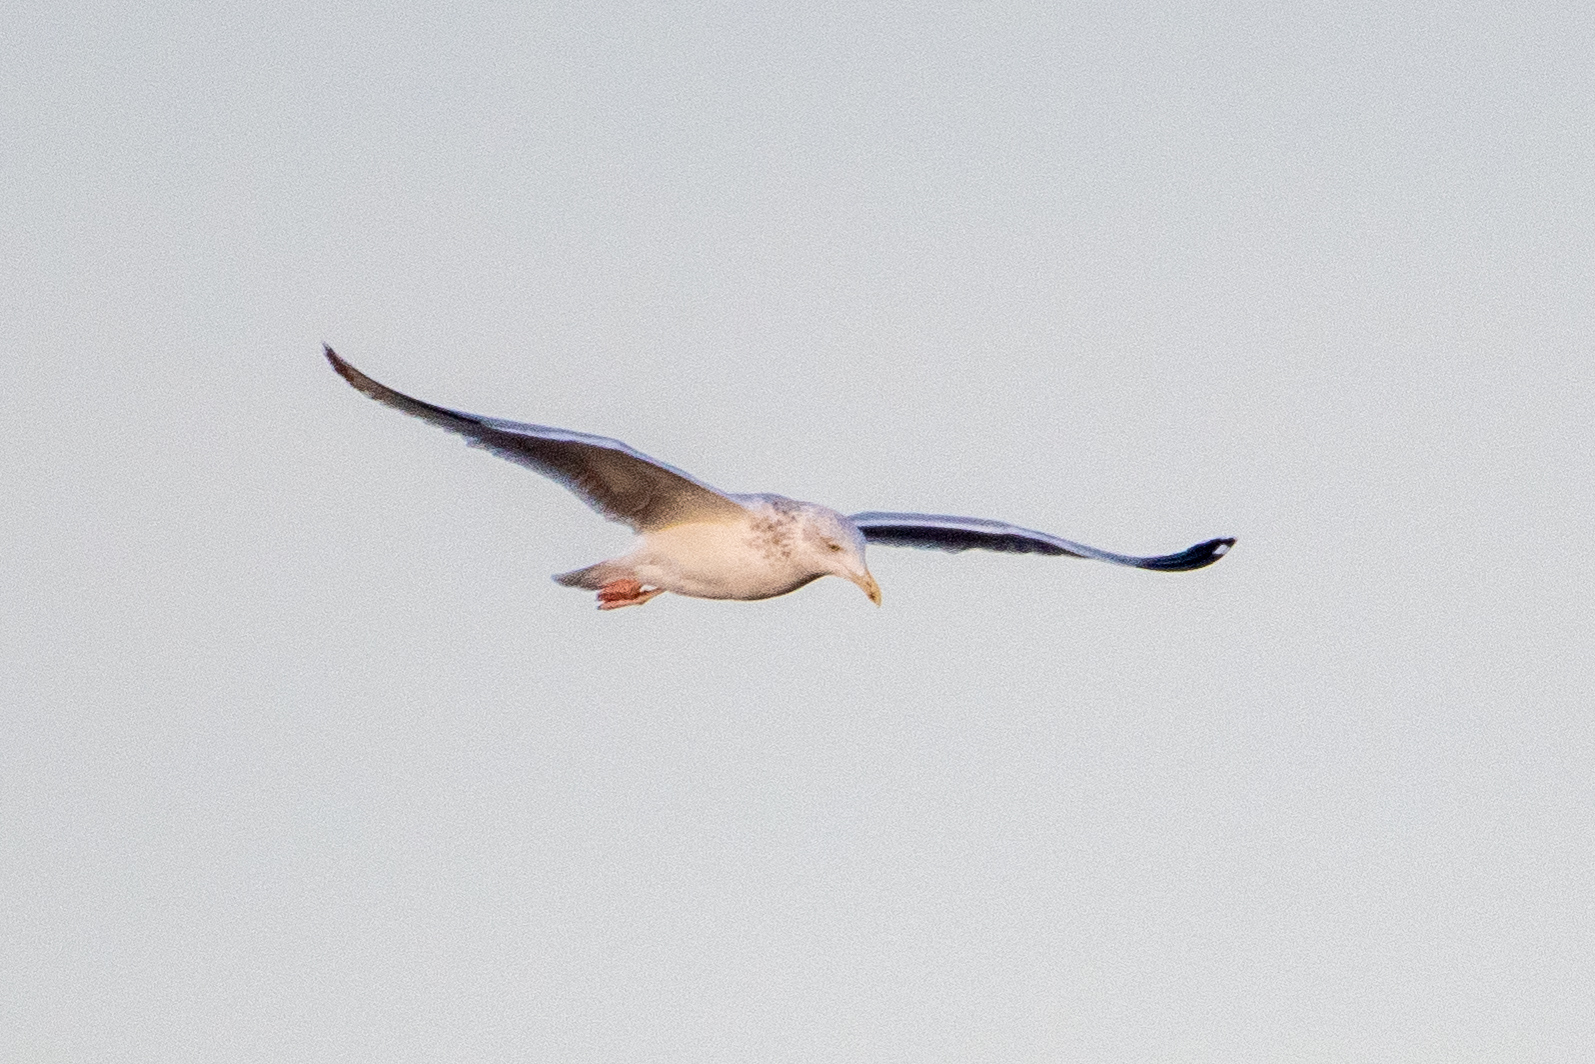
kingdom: Animalia
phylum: Chordata
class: Aves
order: Charadriiformes
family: Laridae
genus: Larus
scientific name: Larus argentatus
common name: Herring gull
